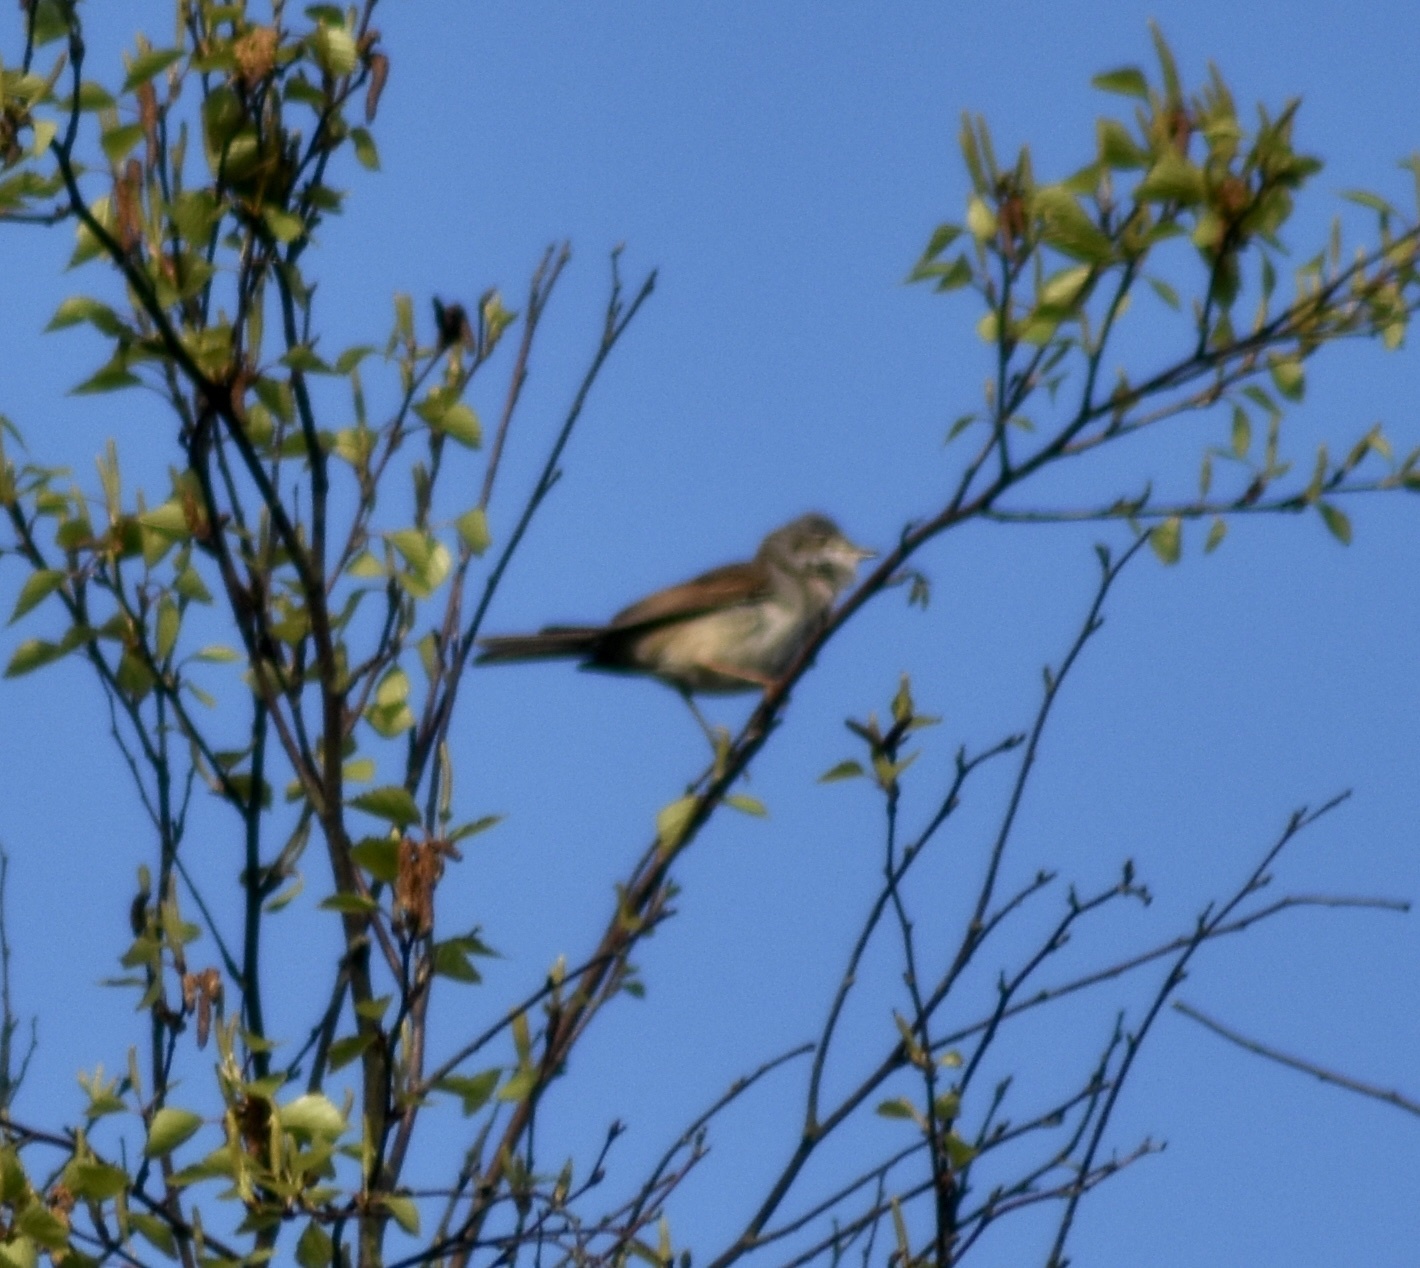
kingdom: Animalia
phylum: Chordata
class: Aves
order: Passeriformes
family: Sylviidae
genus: Sylvia
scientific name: Sylvia communis
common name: Common whitethroat
